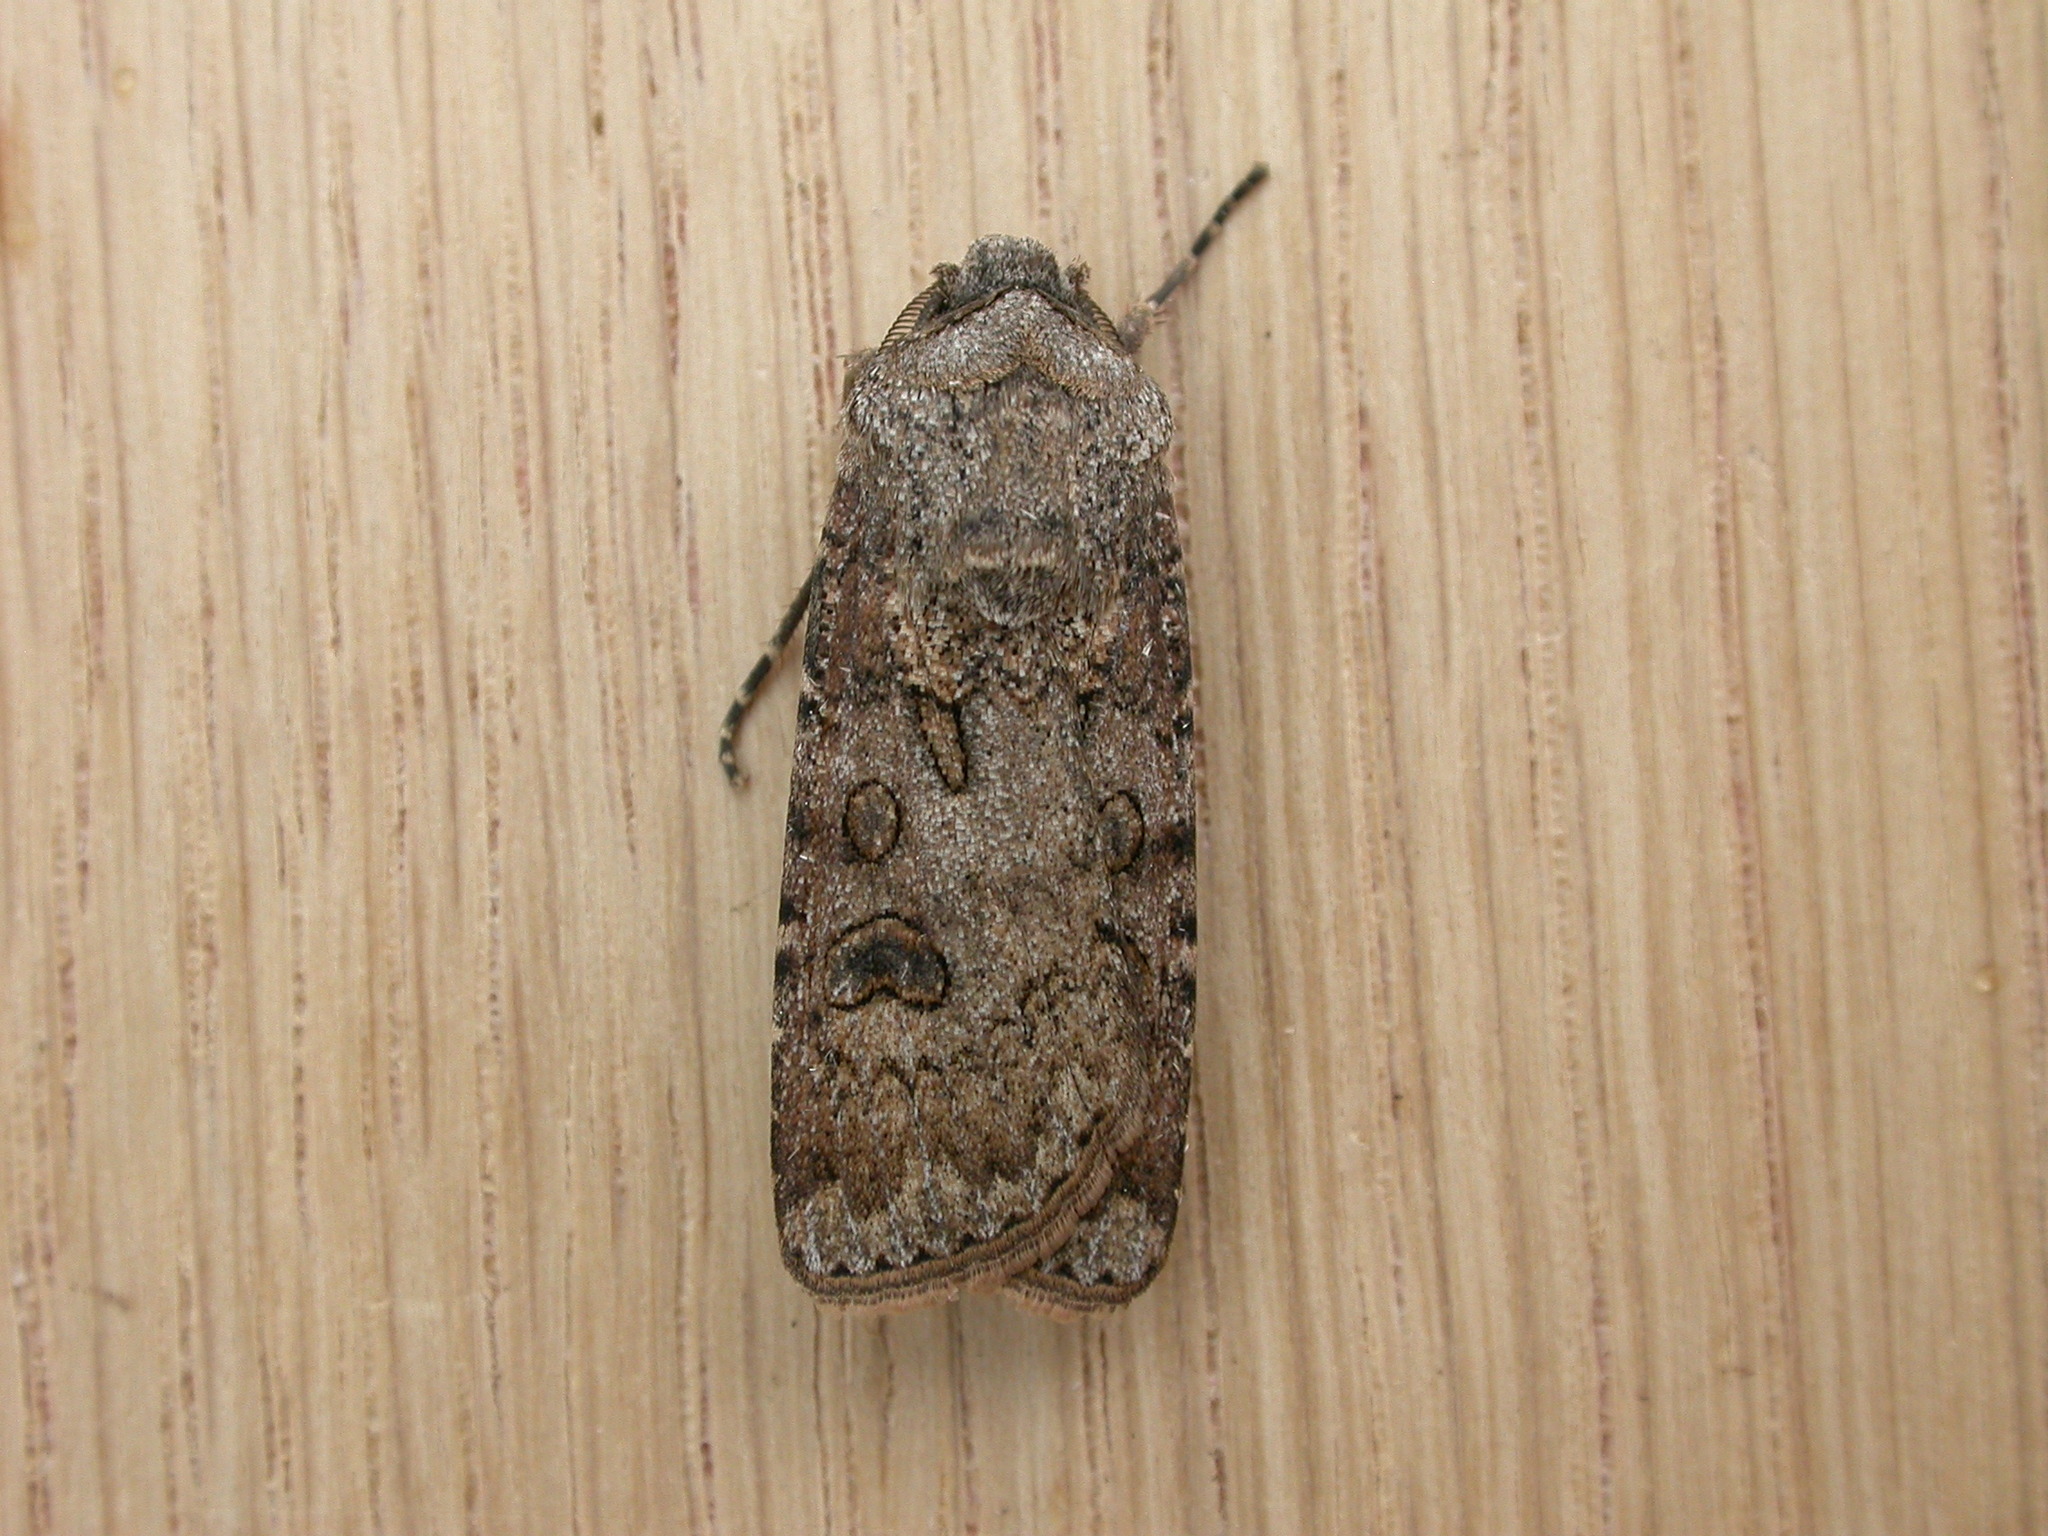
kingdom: Animalia
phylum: Arthropoda
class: Insecta
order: Lepidoptera
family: Noctuidae
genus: Agrotis
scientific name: Agrotis segetum
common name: Turnip moth
